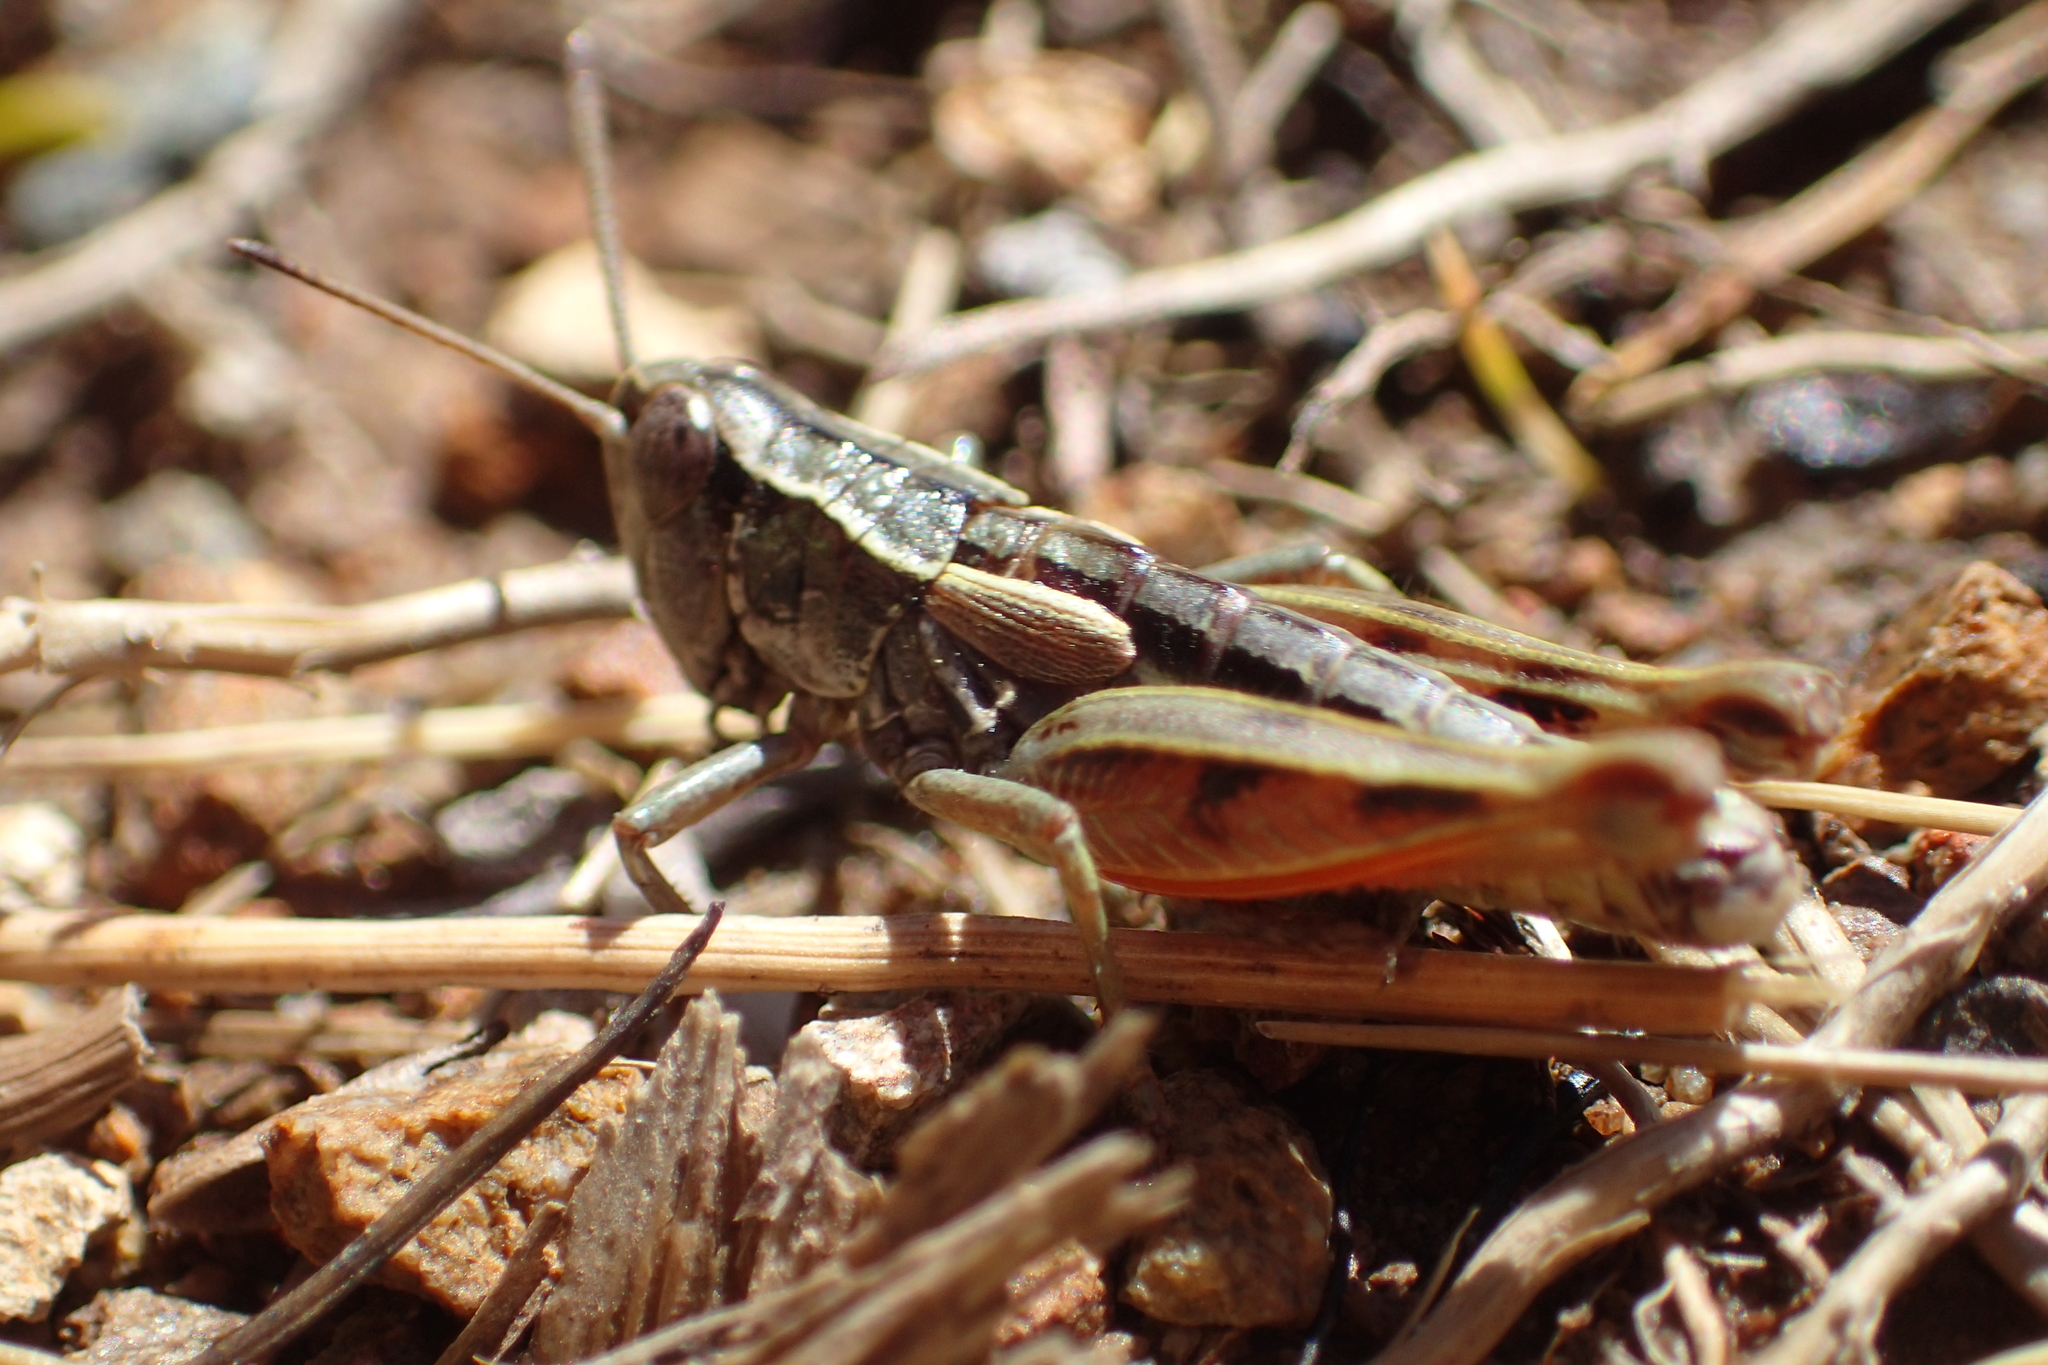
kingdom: Animalia
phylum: Arthropoda
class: Insecta
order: Orthoptera
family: Acrididae
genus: Sigaus
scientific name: Sigaus australis
